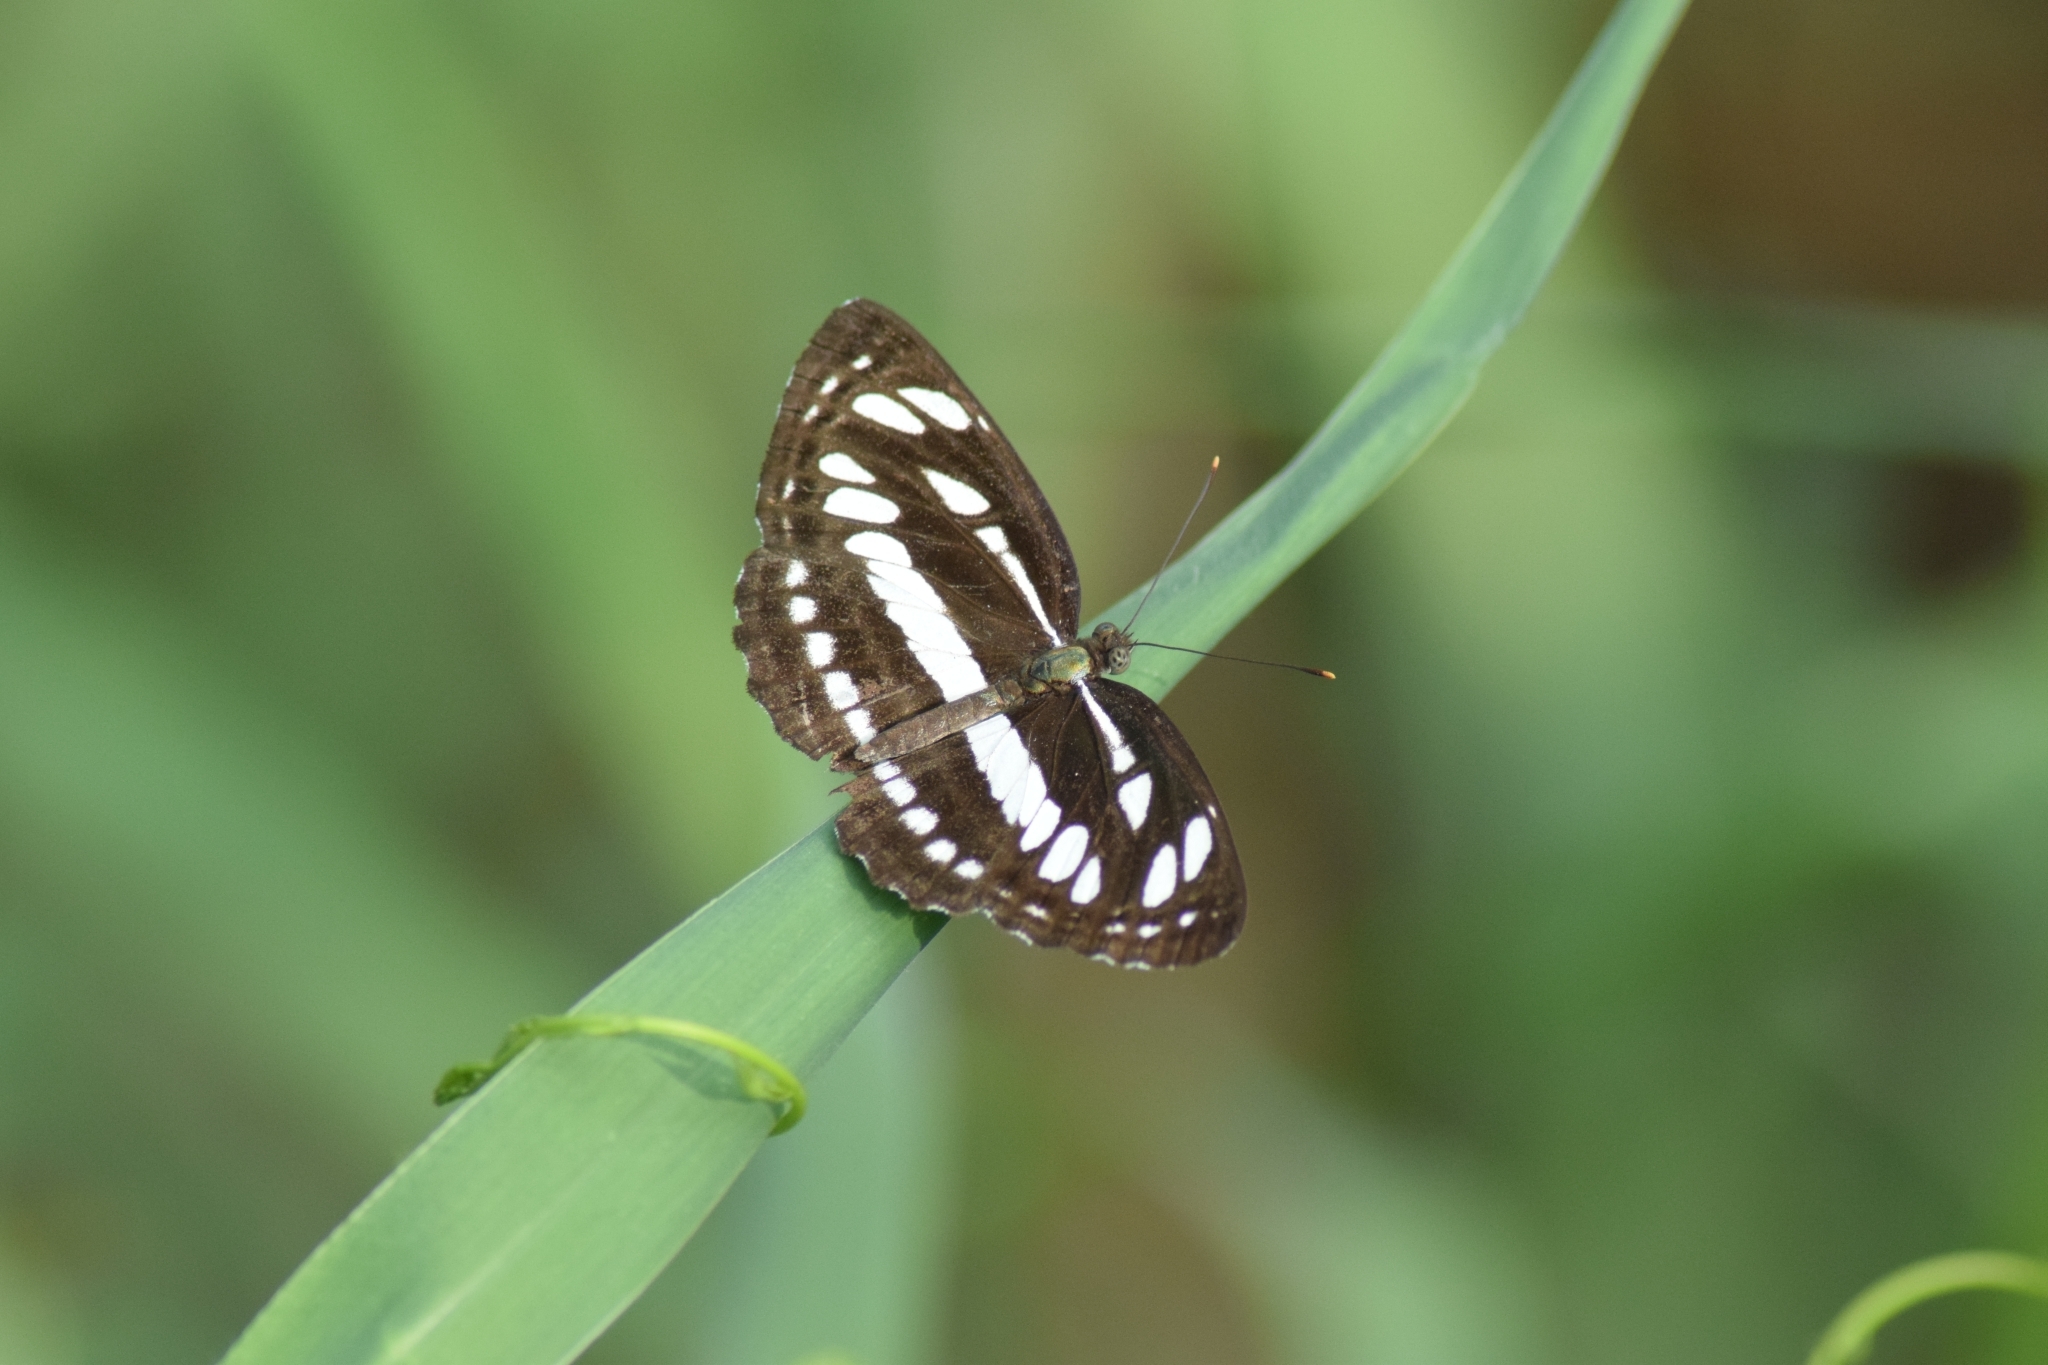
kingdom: Animalia
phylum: Arthropoda
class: Insecta
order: Lepidoptera
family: Nymphalidae
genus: Neptis
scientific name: Neptis hylas
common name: Common sailer
